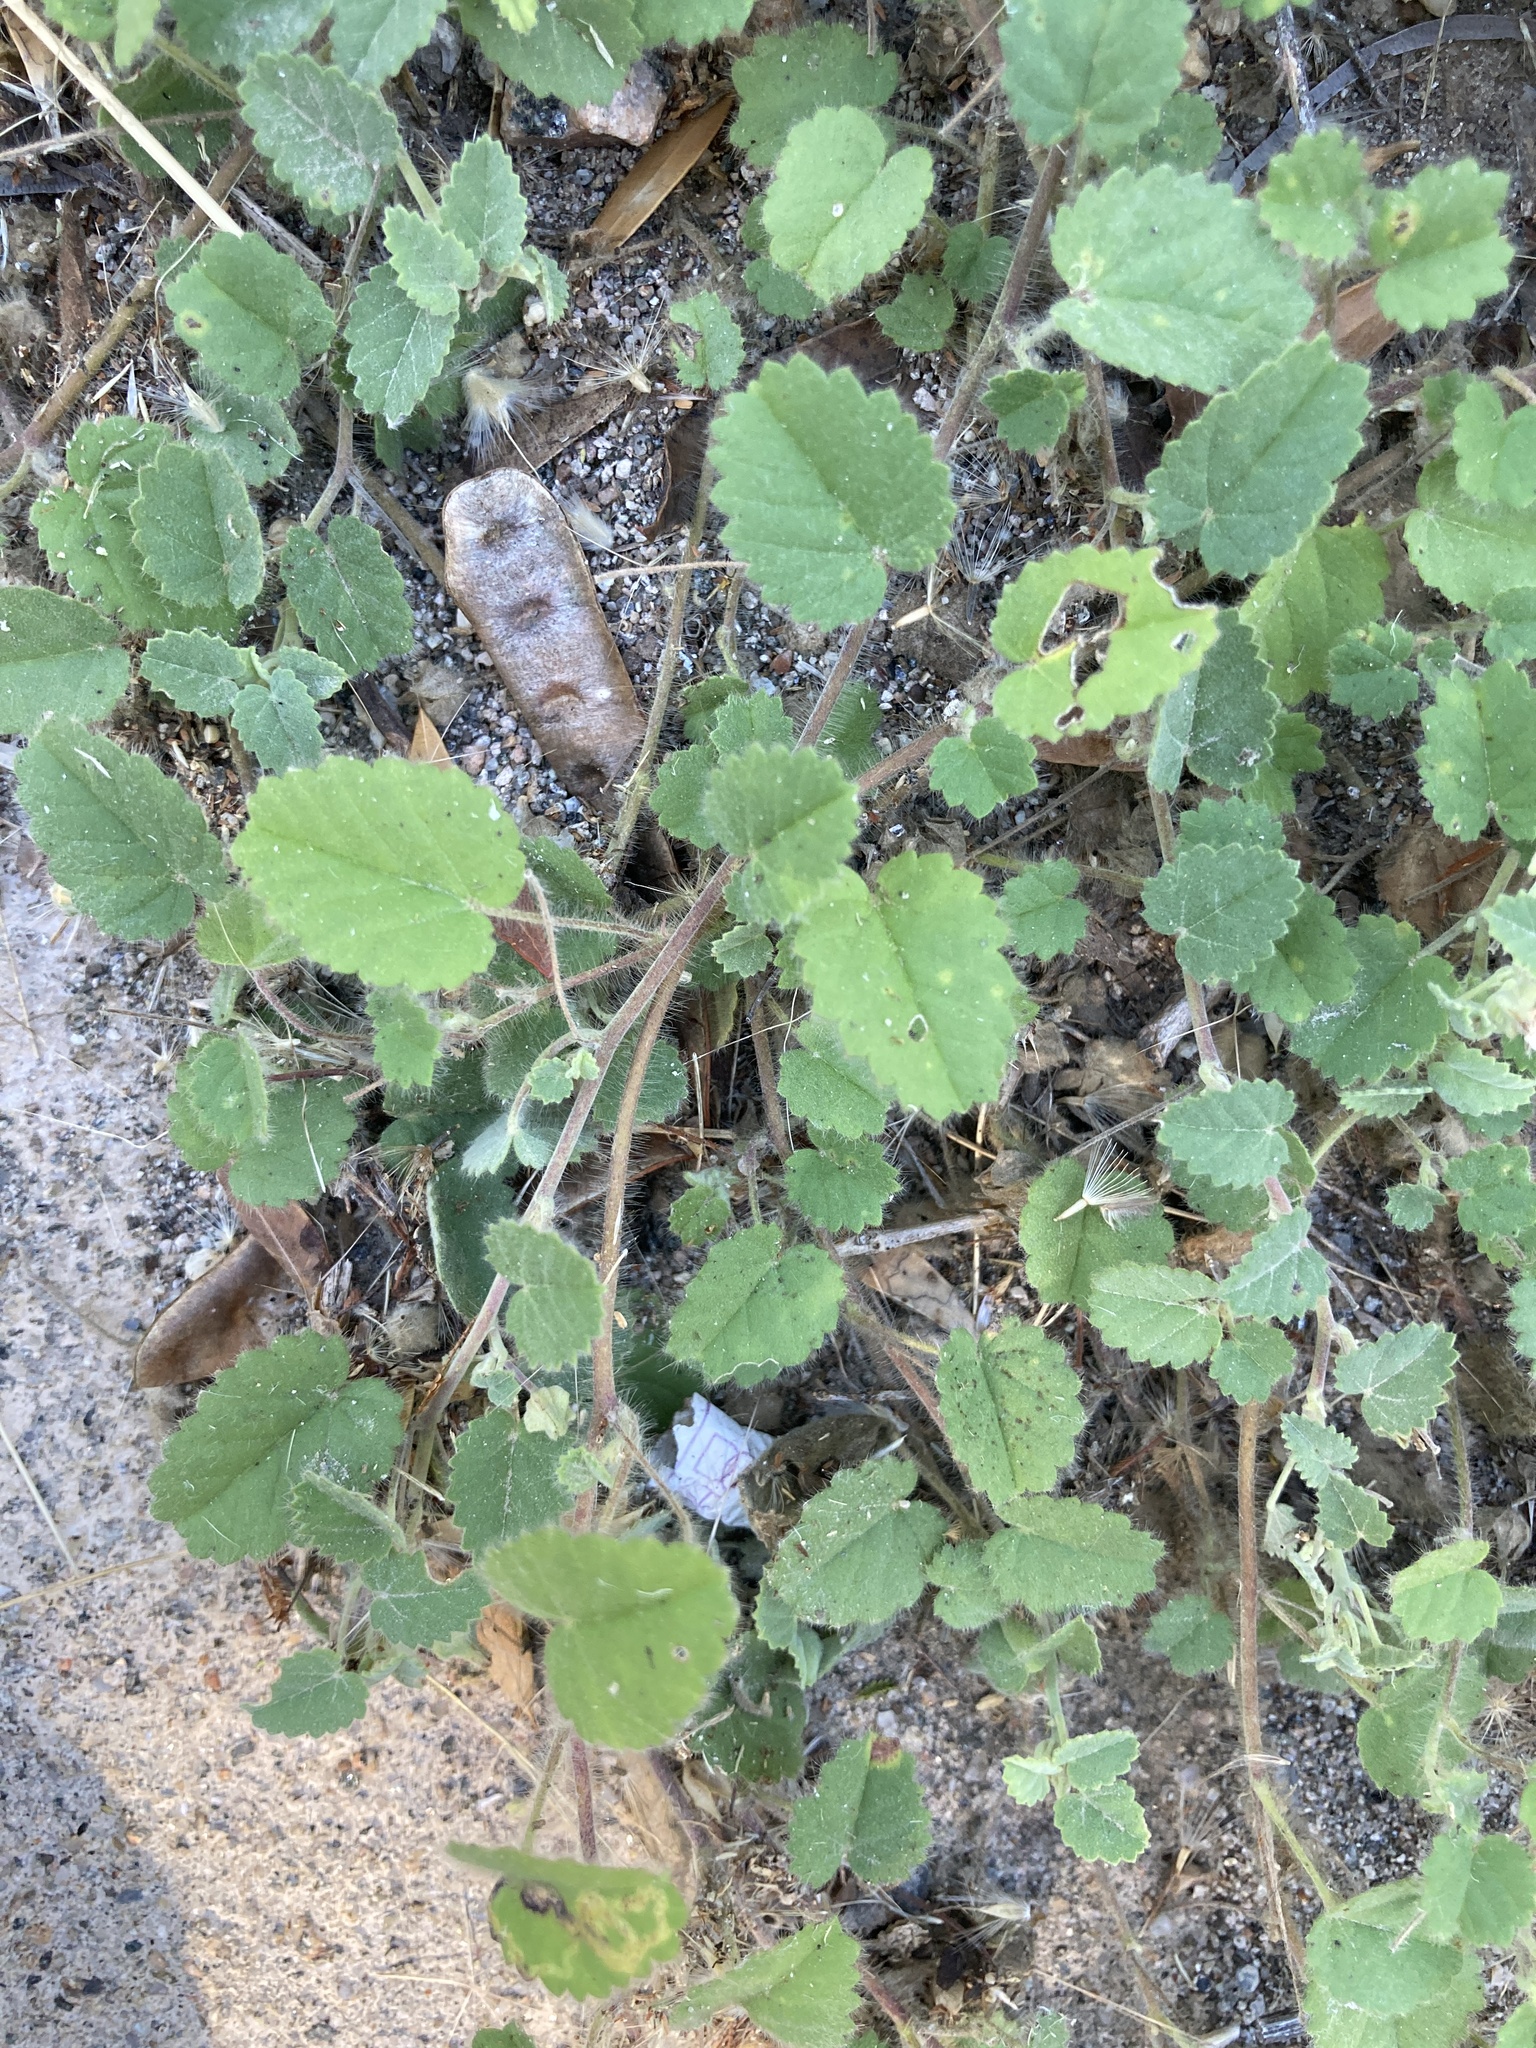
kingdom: Plantae
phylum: Tracheophyta
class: Magnoliopsida
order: Malvales
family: Malvaceae
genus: Sida
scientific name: Sida argentina
